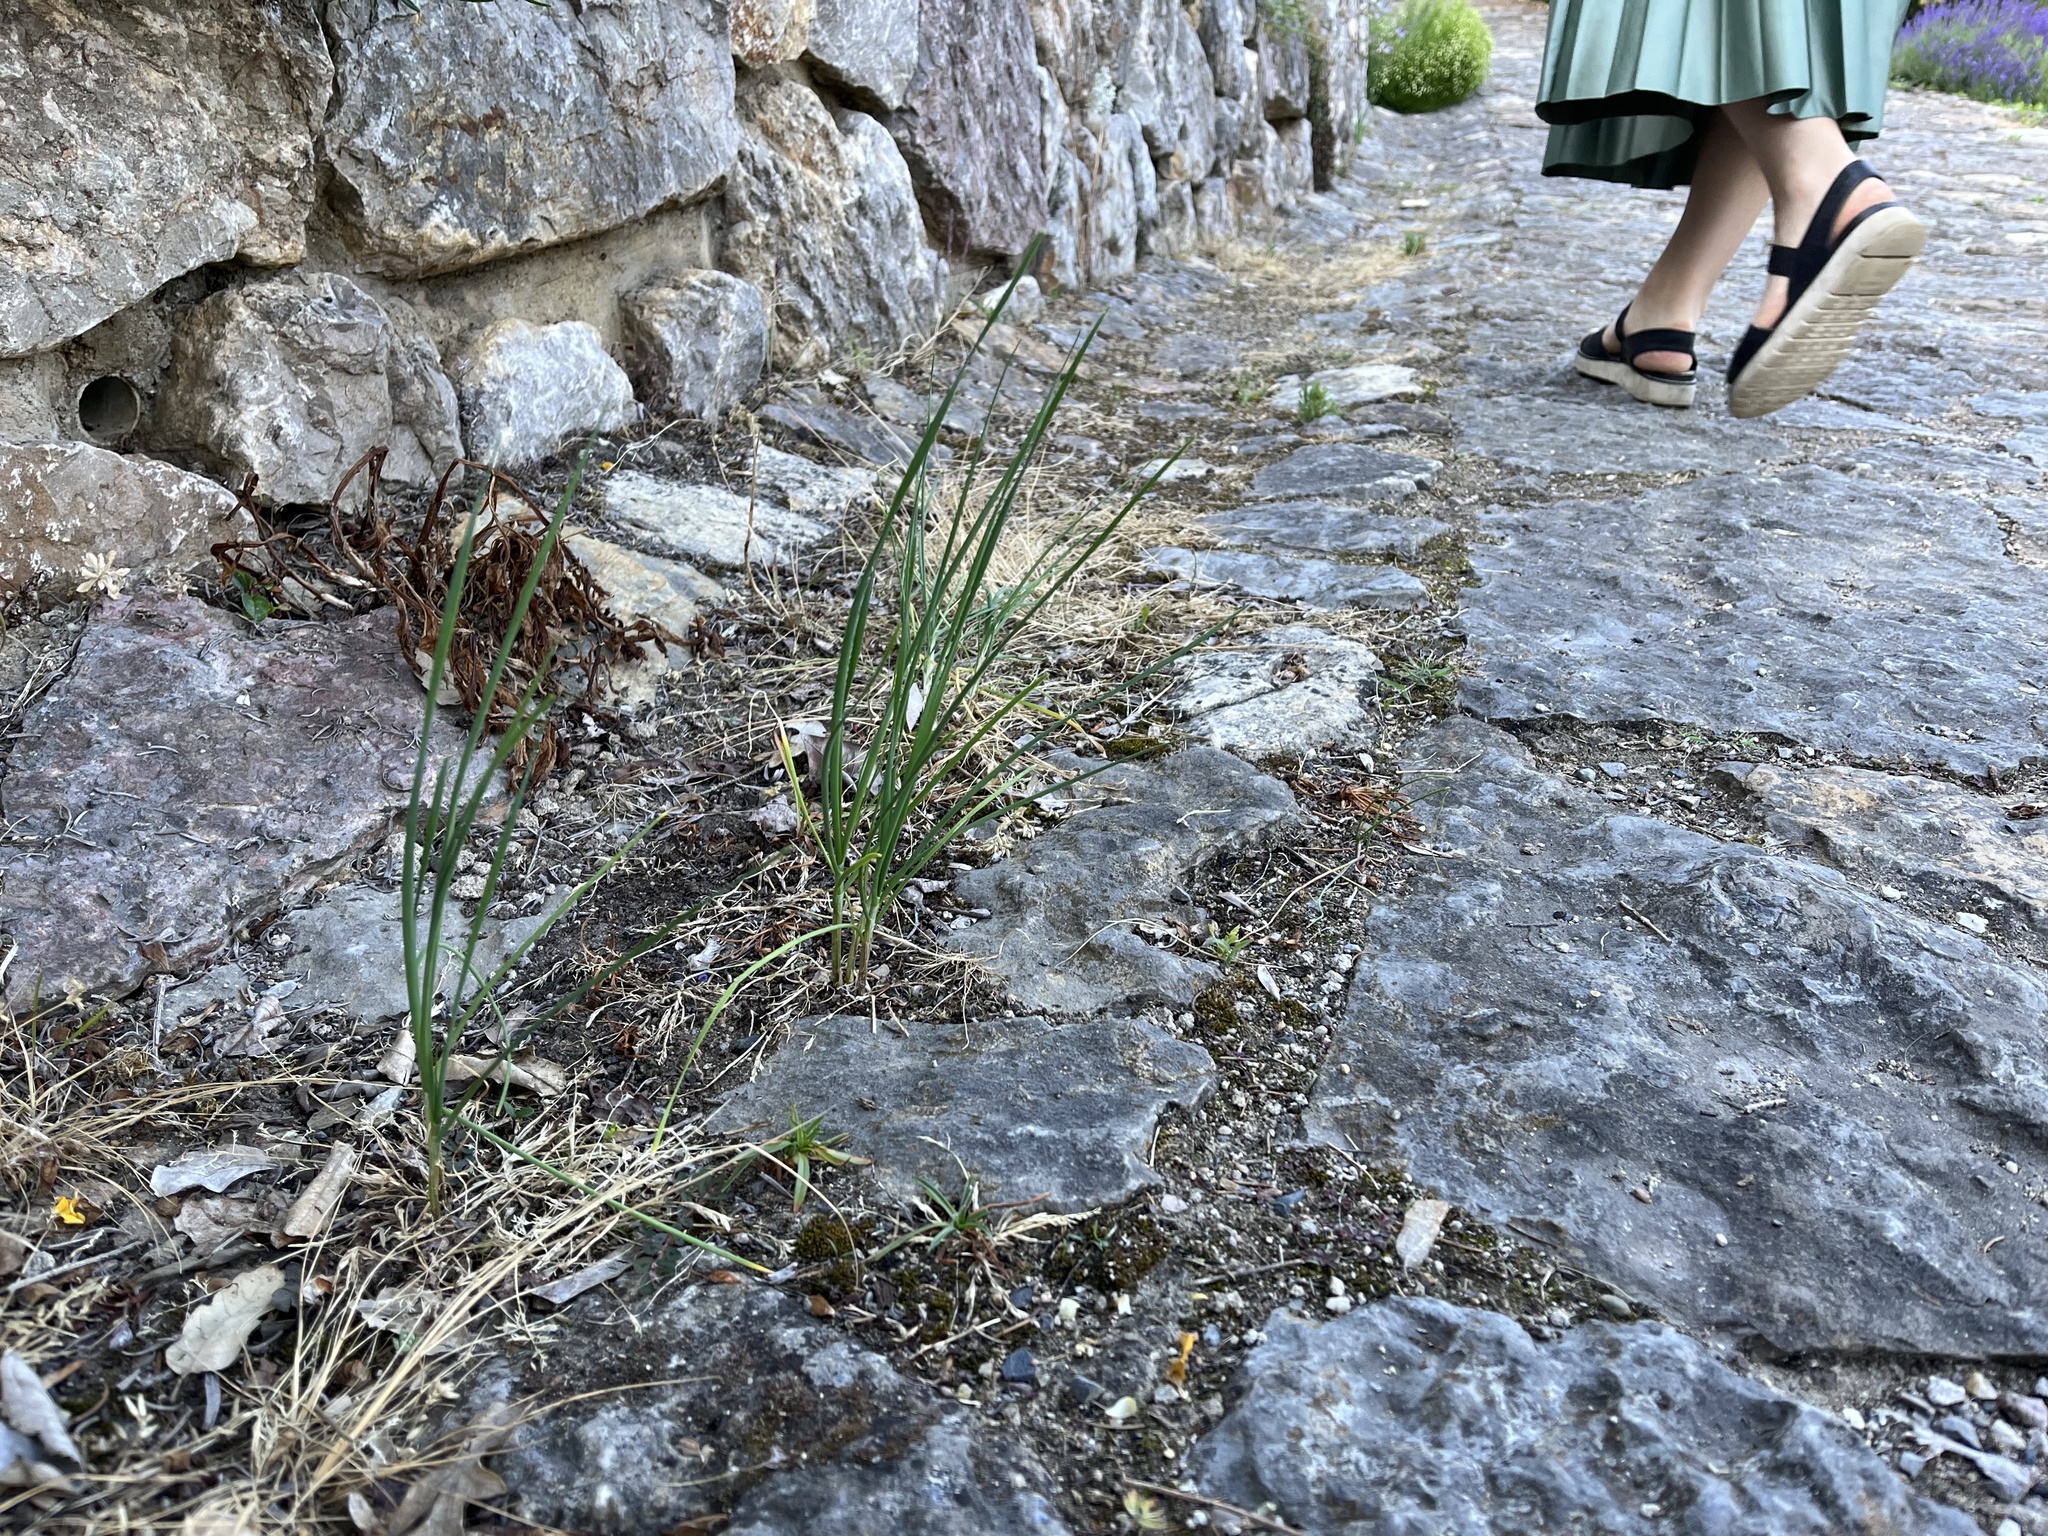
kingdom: Plantae
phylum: Tracheophyta
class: Liliopsida
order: Asparagales
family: Amaryllidaceae
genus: Allium
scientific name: Allium tuberosum
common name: Chinese chives
